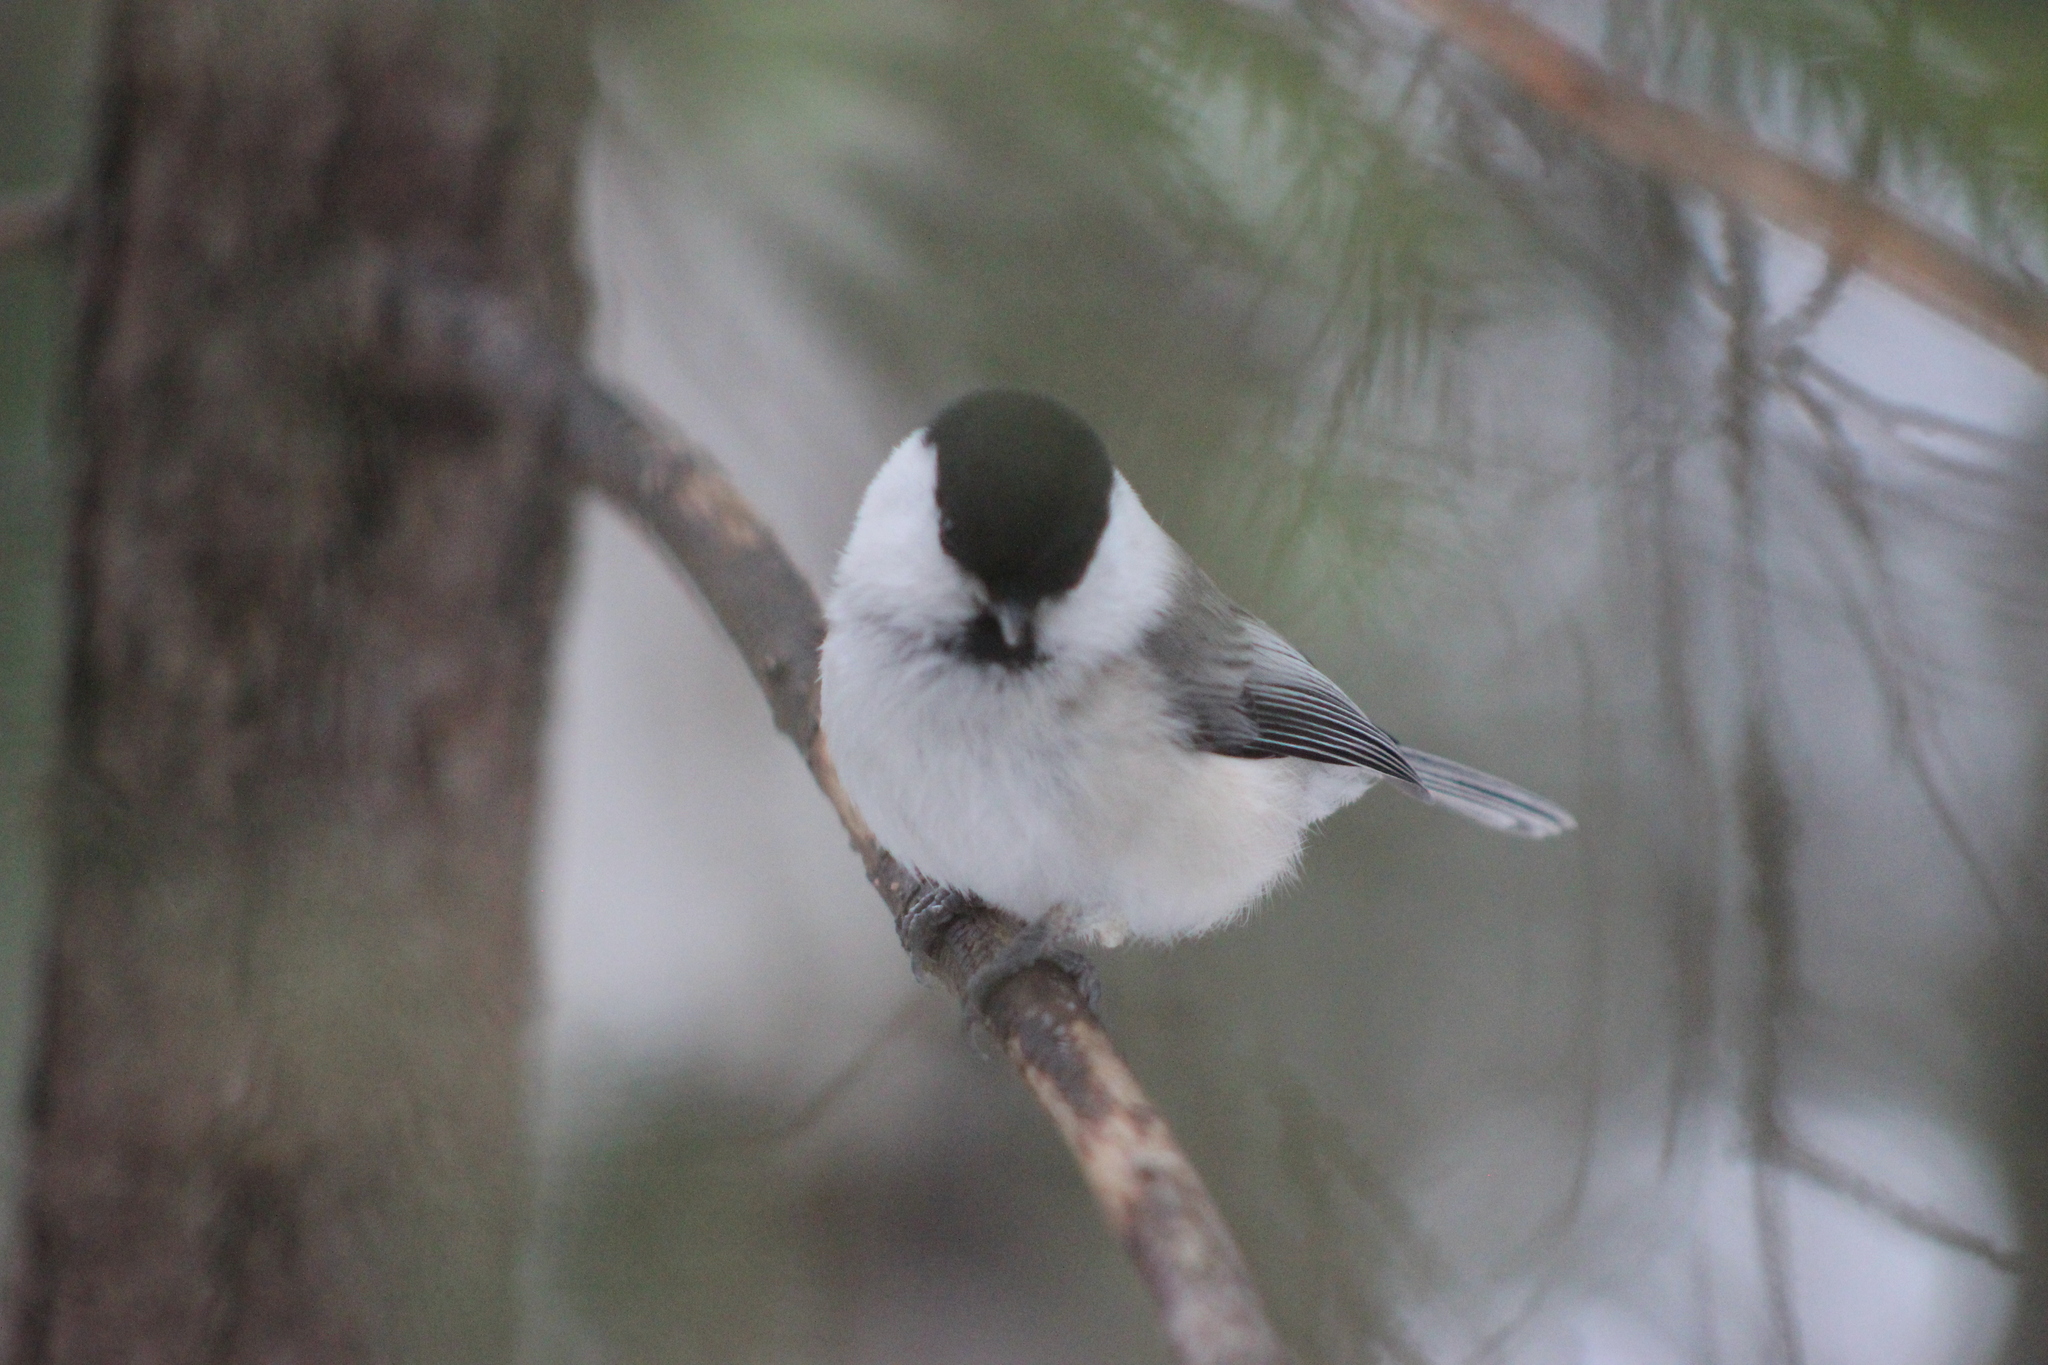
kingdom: Animalia
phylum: Chordata
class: Aves
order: Passeriformes
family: Paridae
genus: Poecile
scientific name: Poecile montanus
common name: Willow tit
